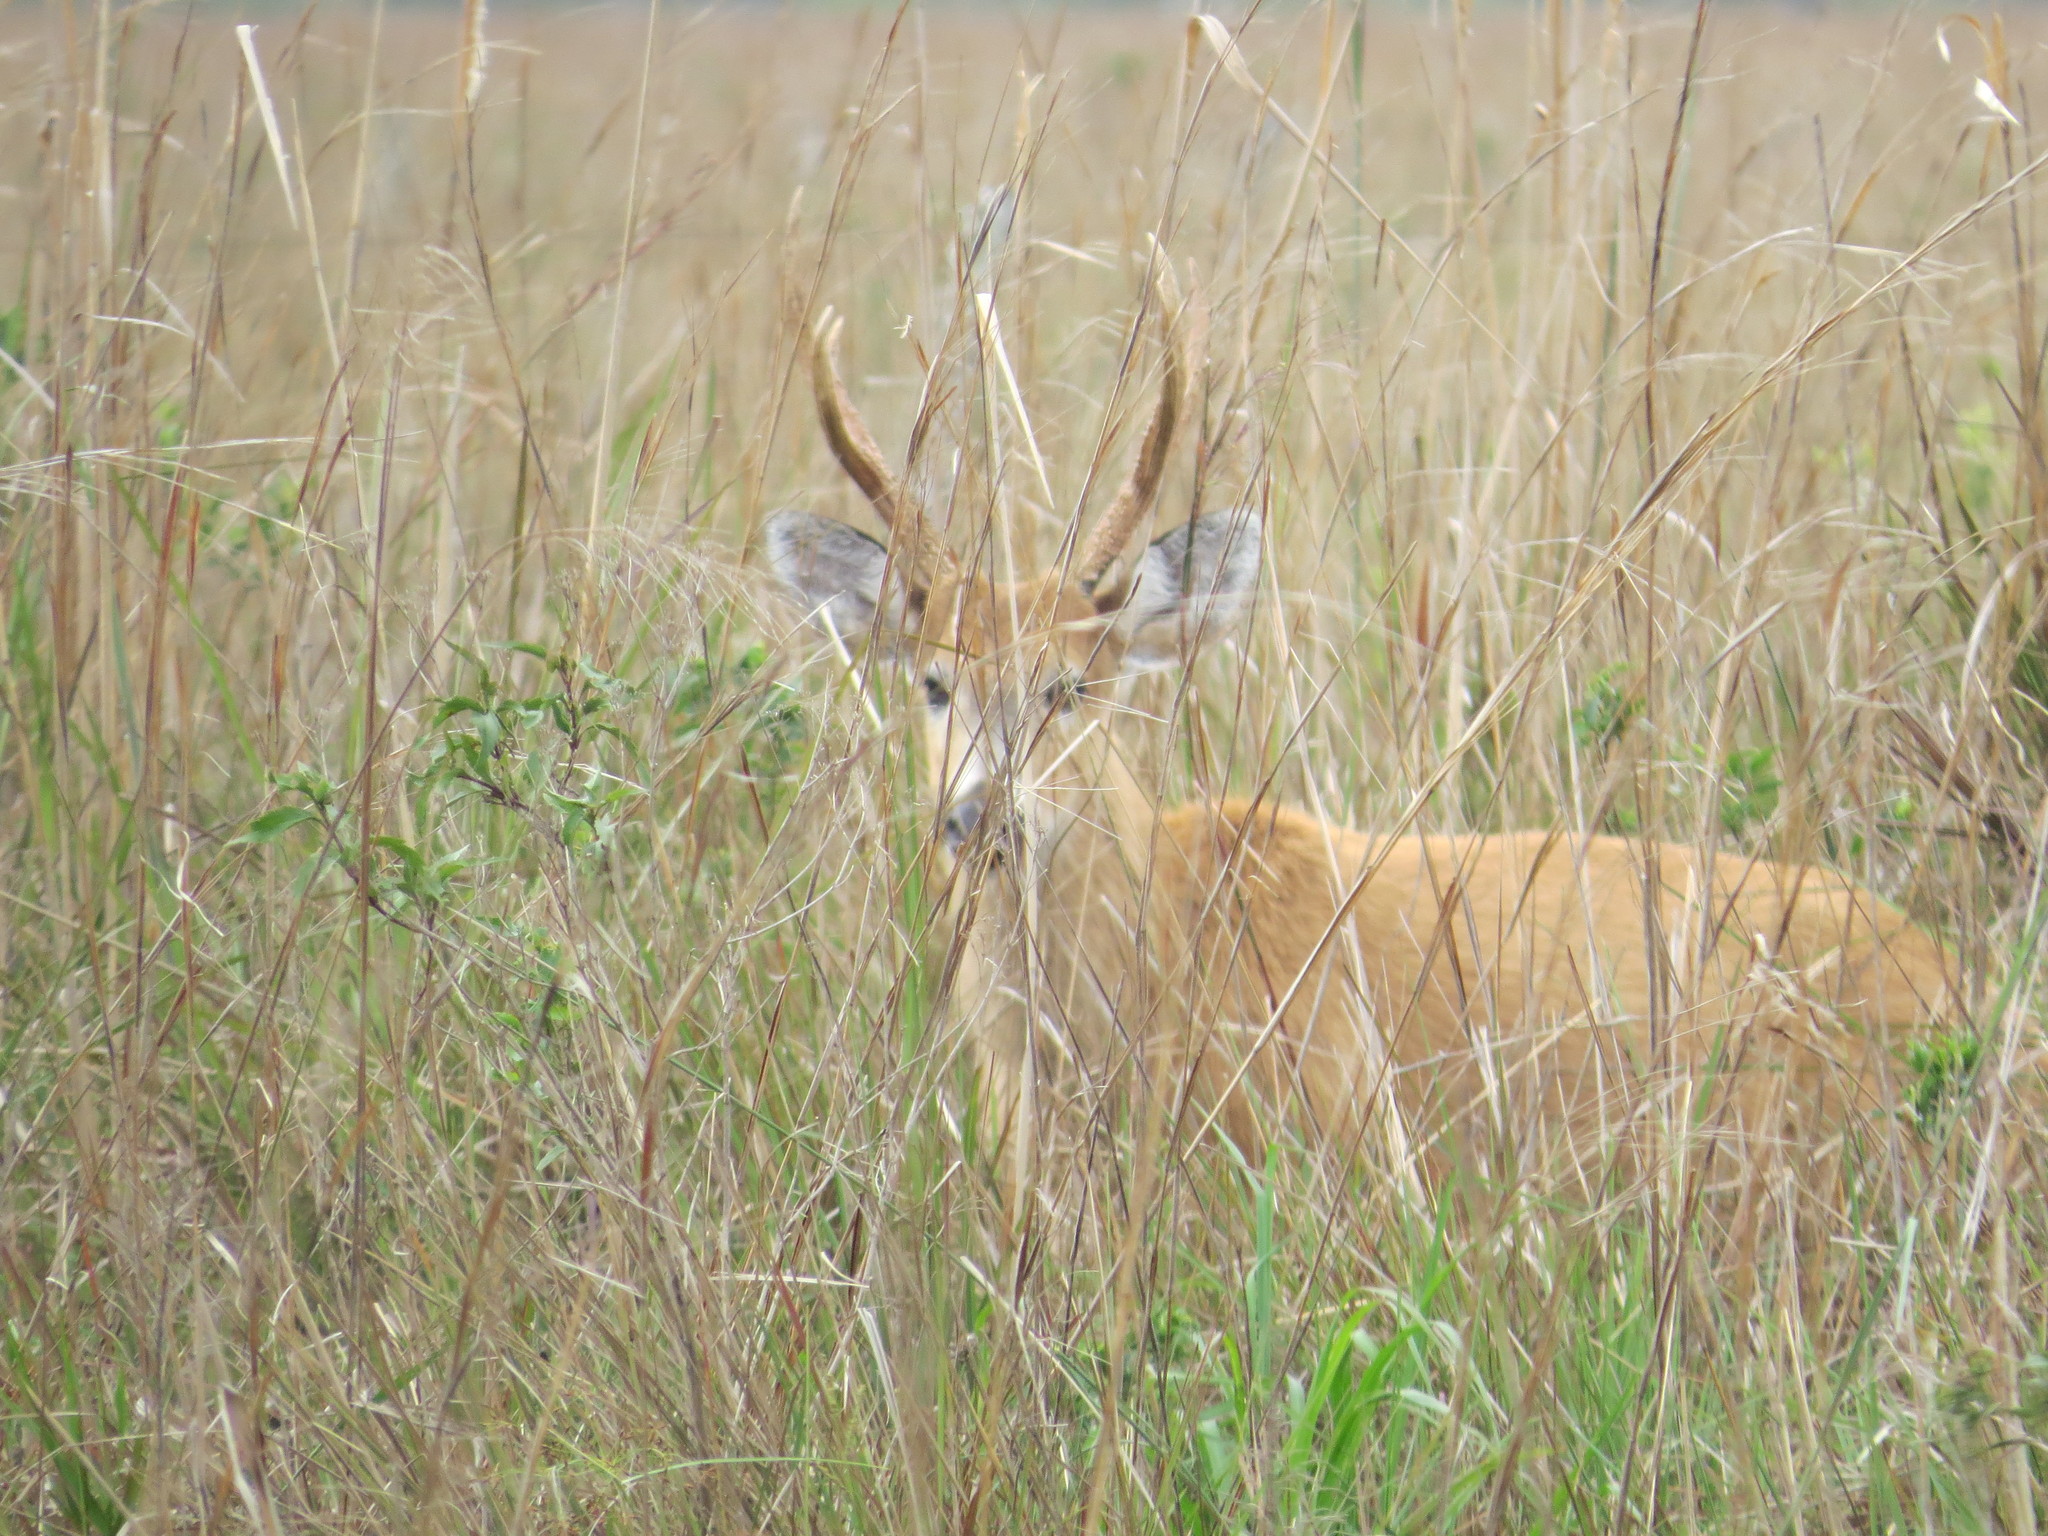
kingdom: Animalia
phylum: Chordata
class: Mammalia
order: Artiodactyla
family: Cervidae
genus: Blastocerus
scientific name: Blastocerus dichotomus
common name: Marsh deer
